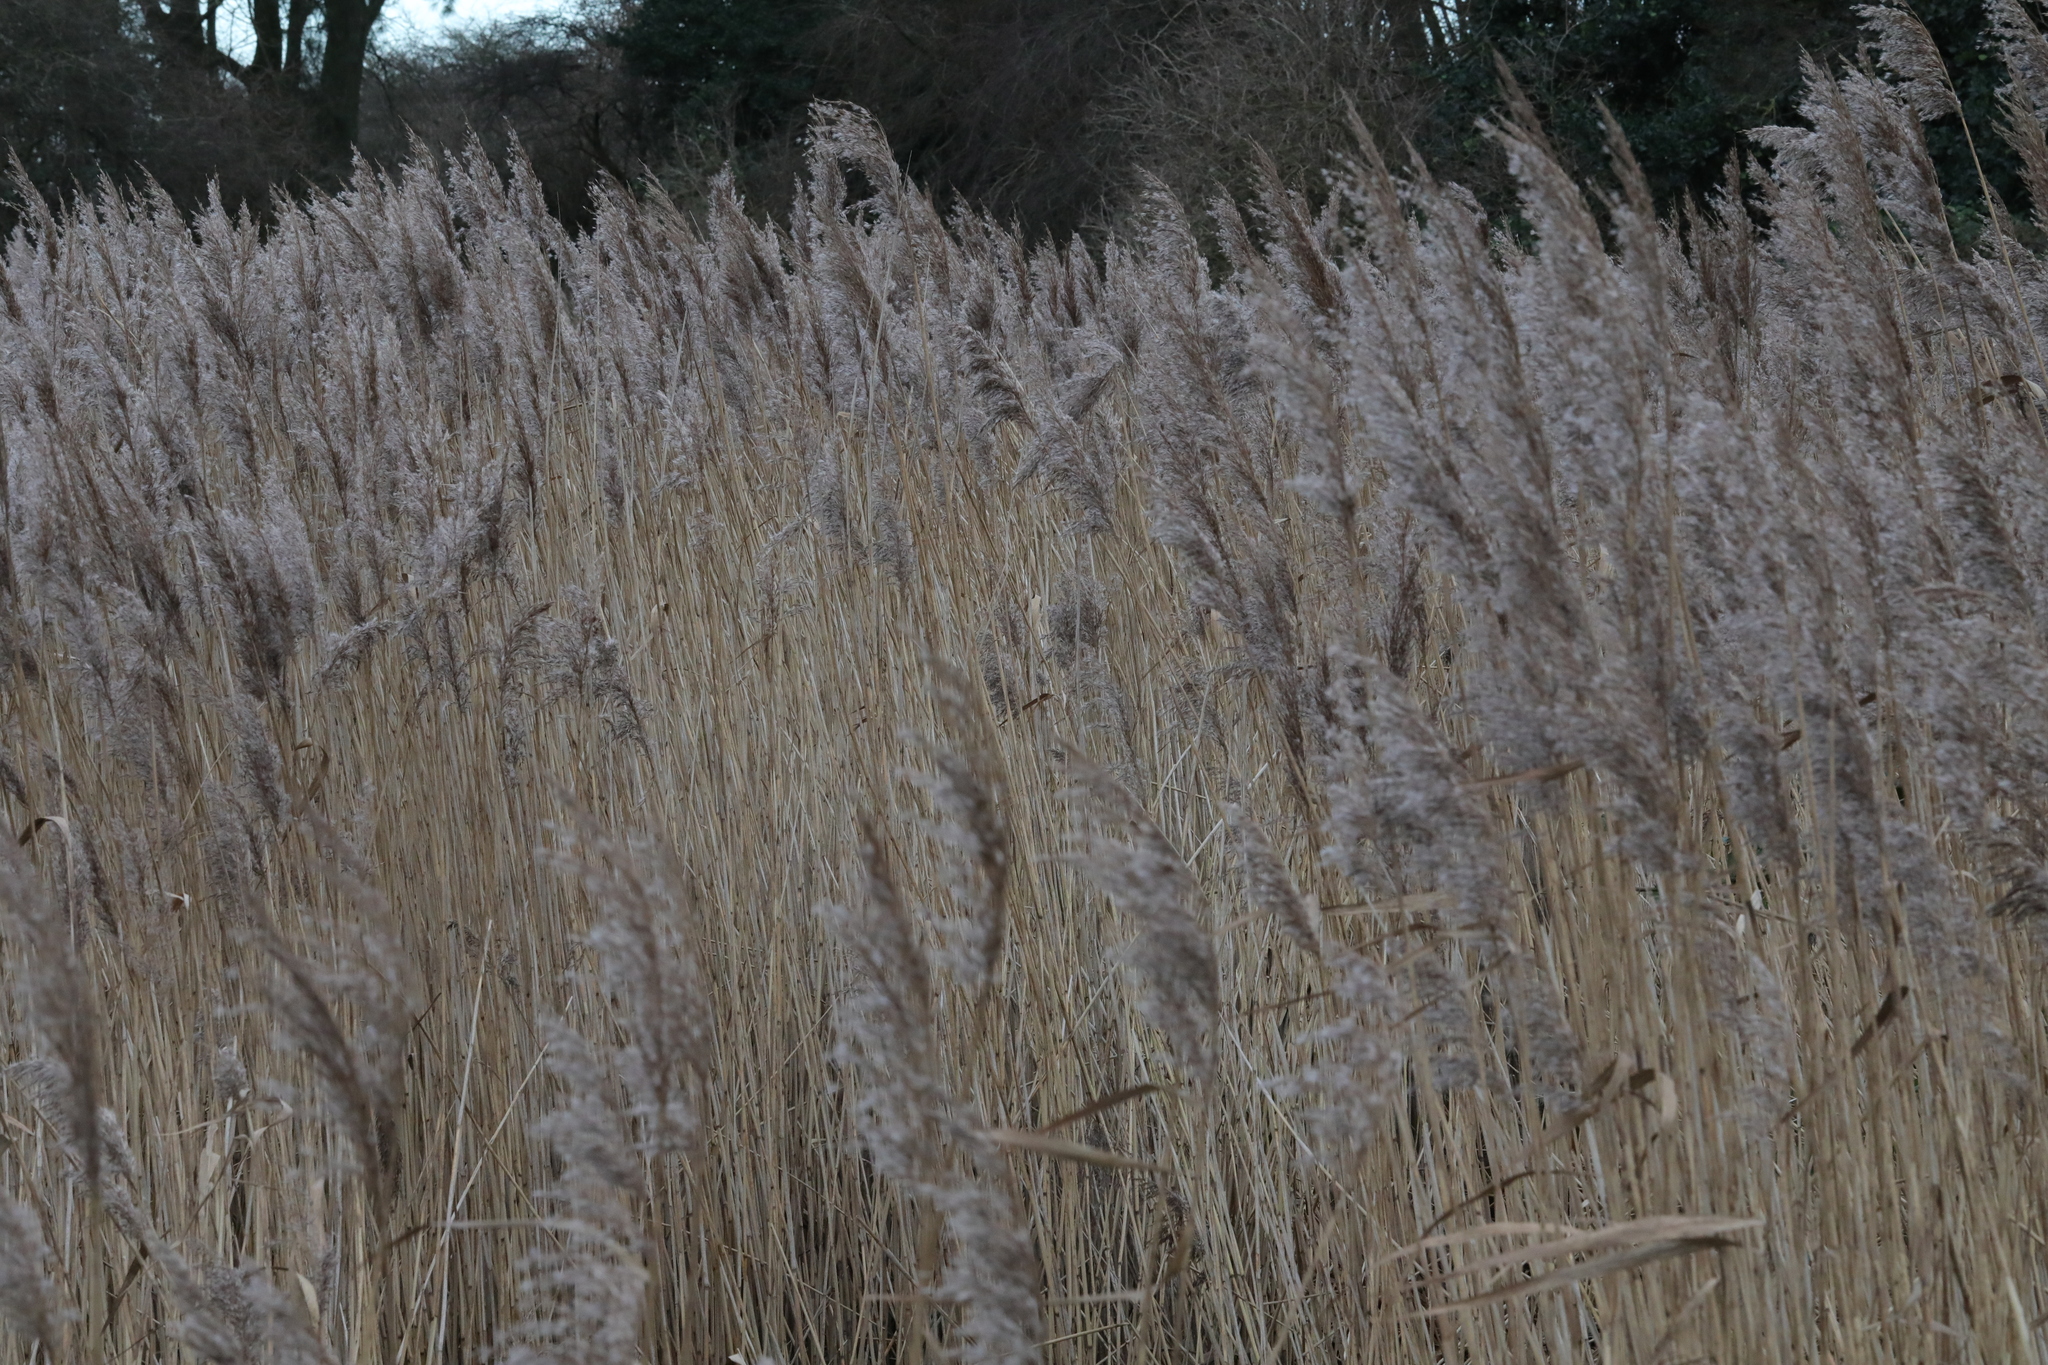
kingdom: Plantae
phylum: Tracheophyta
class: Liliopsida
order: Poales
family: Poaceae
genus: Phragmites
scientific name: Phragmites australis
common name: Common reed
